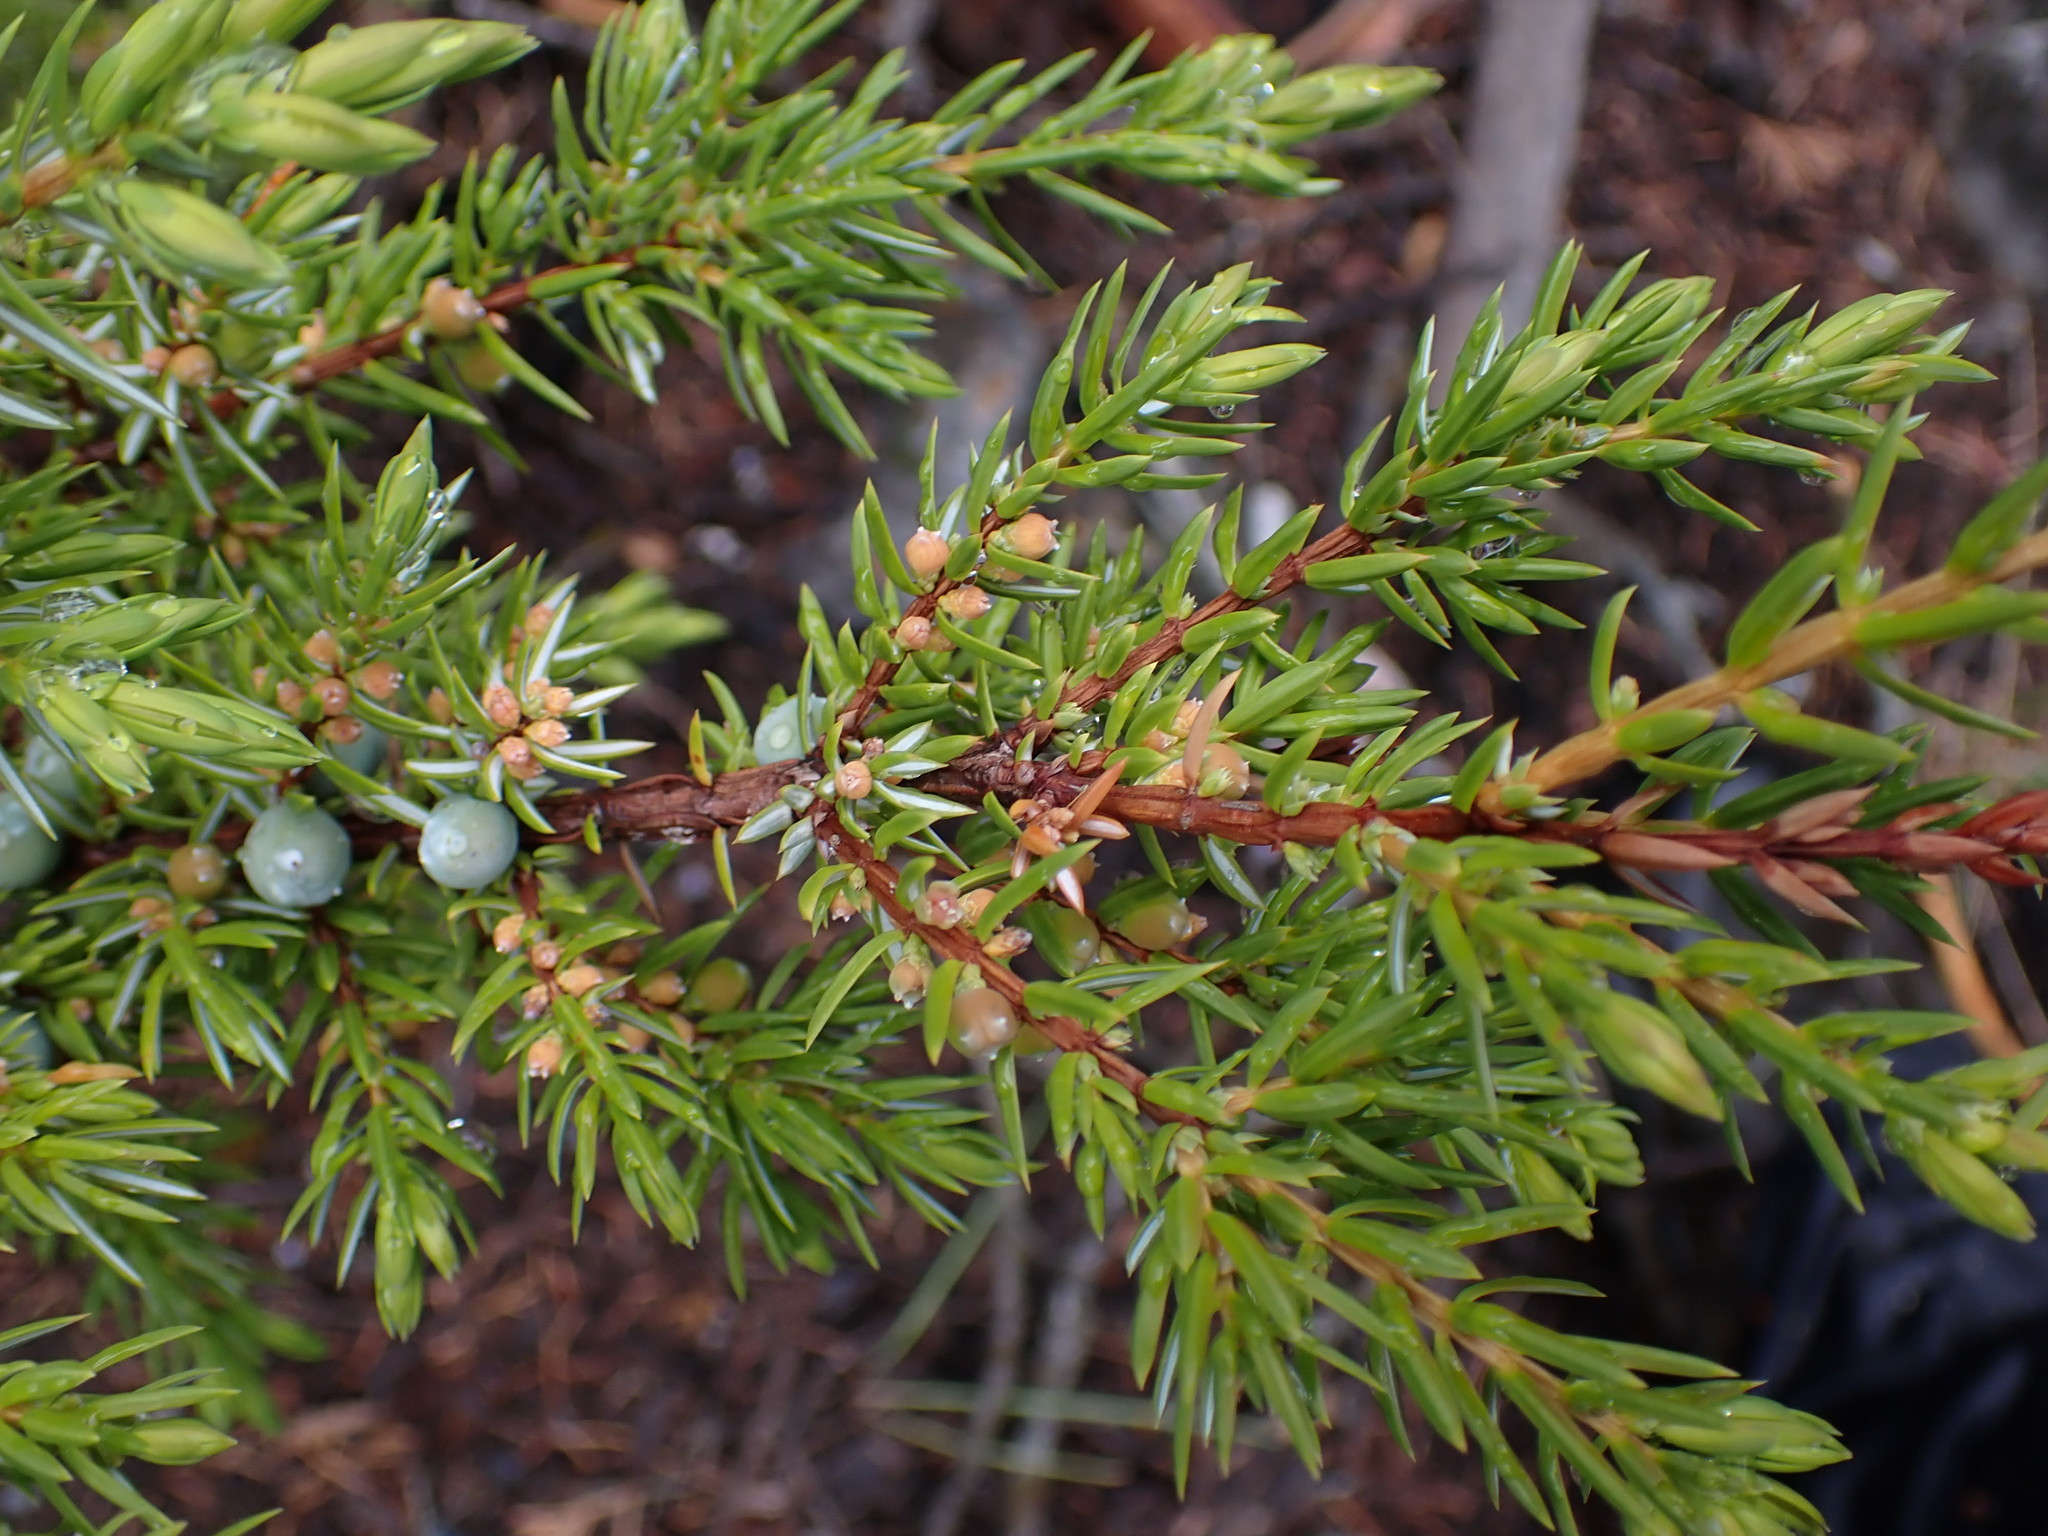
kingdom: Plantae
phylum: Tracheophyta
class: Pinopsida
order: Pinales
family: Cupressaceae
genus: Juniperus
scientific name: Juniperus communis
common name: Common juniper
